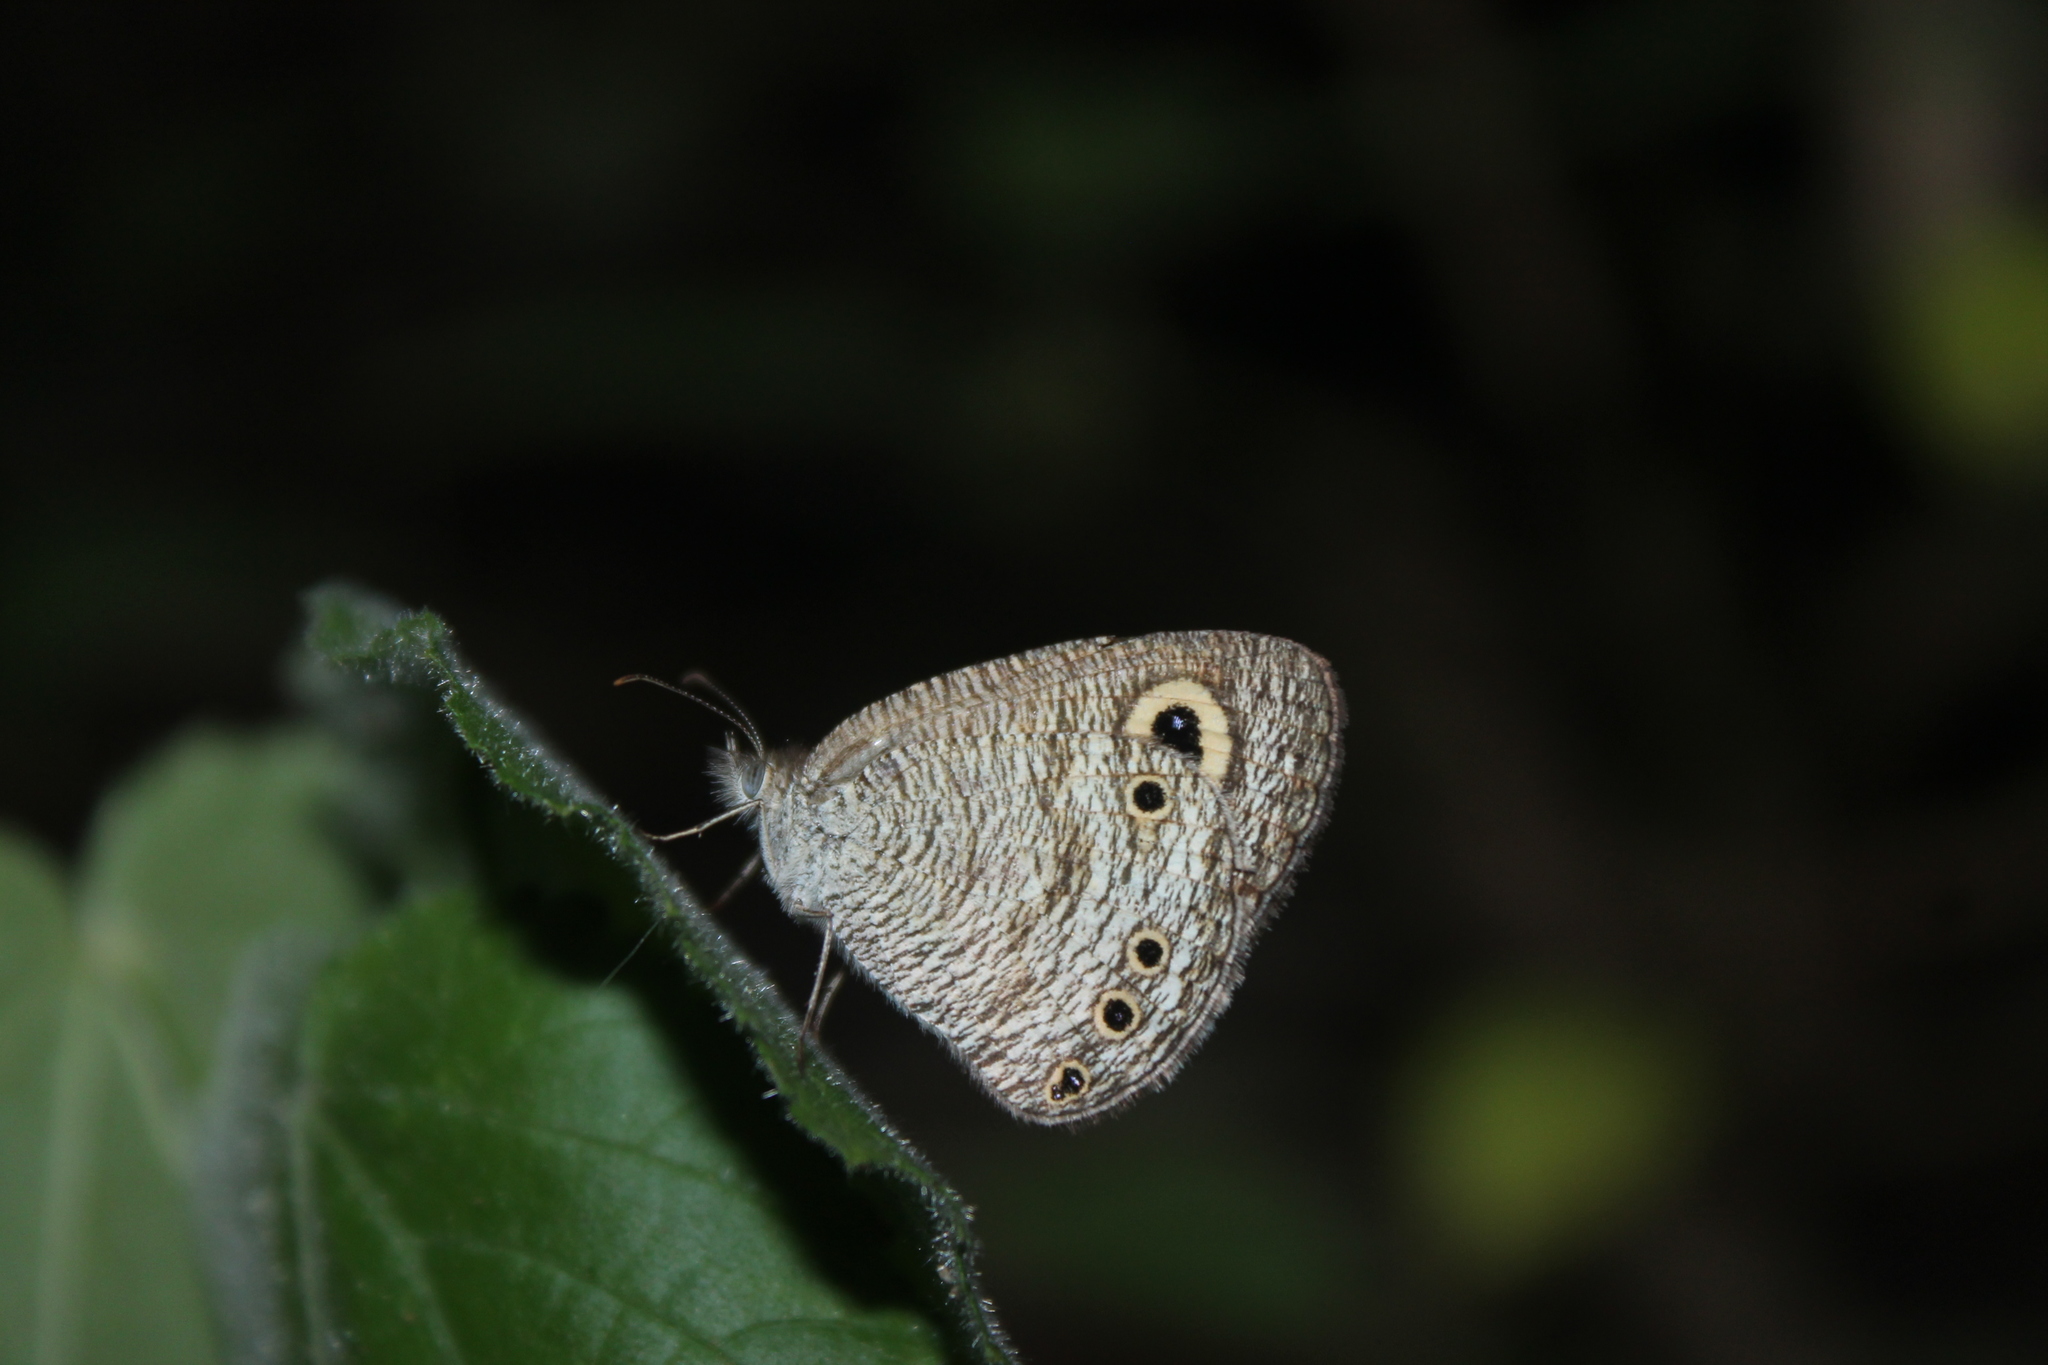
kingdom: Animalia
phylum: Arthropoda
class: Insecta
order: Lepidoptera
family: Nymphalidae
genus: Ypthima
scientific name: Ypthima ceylonica
